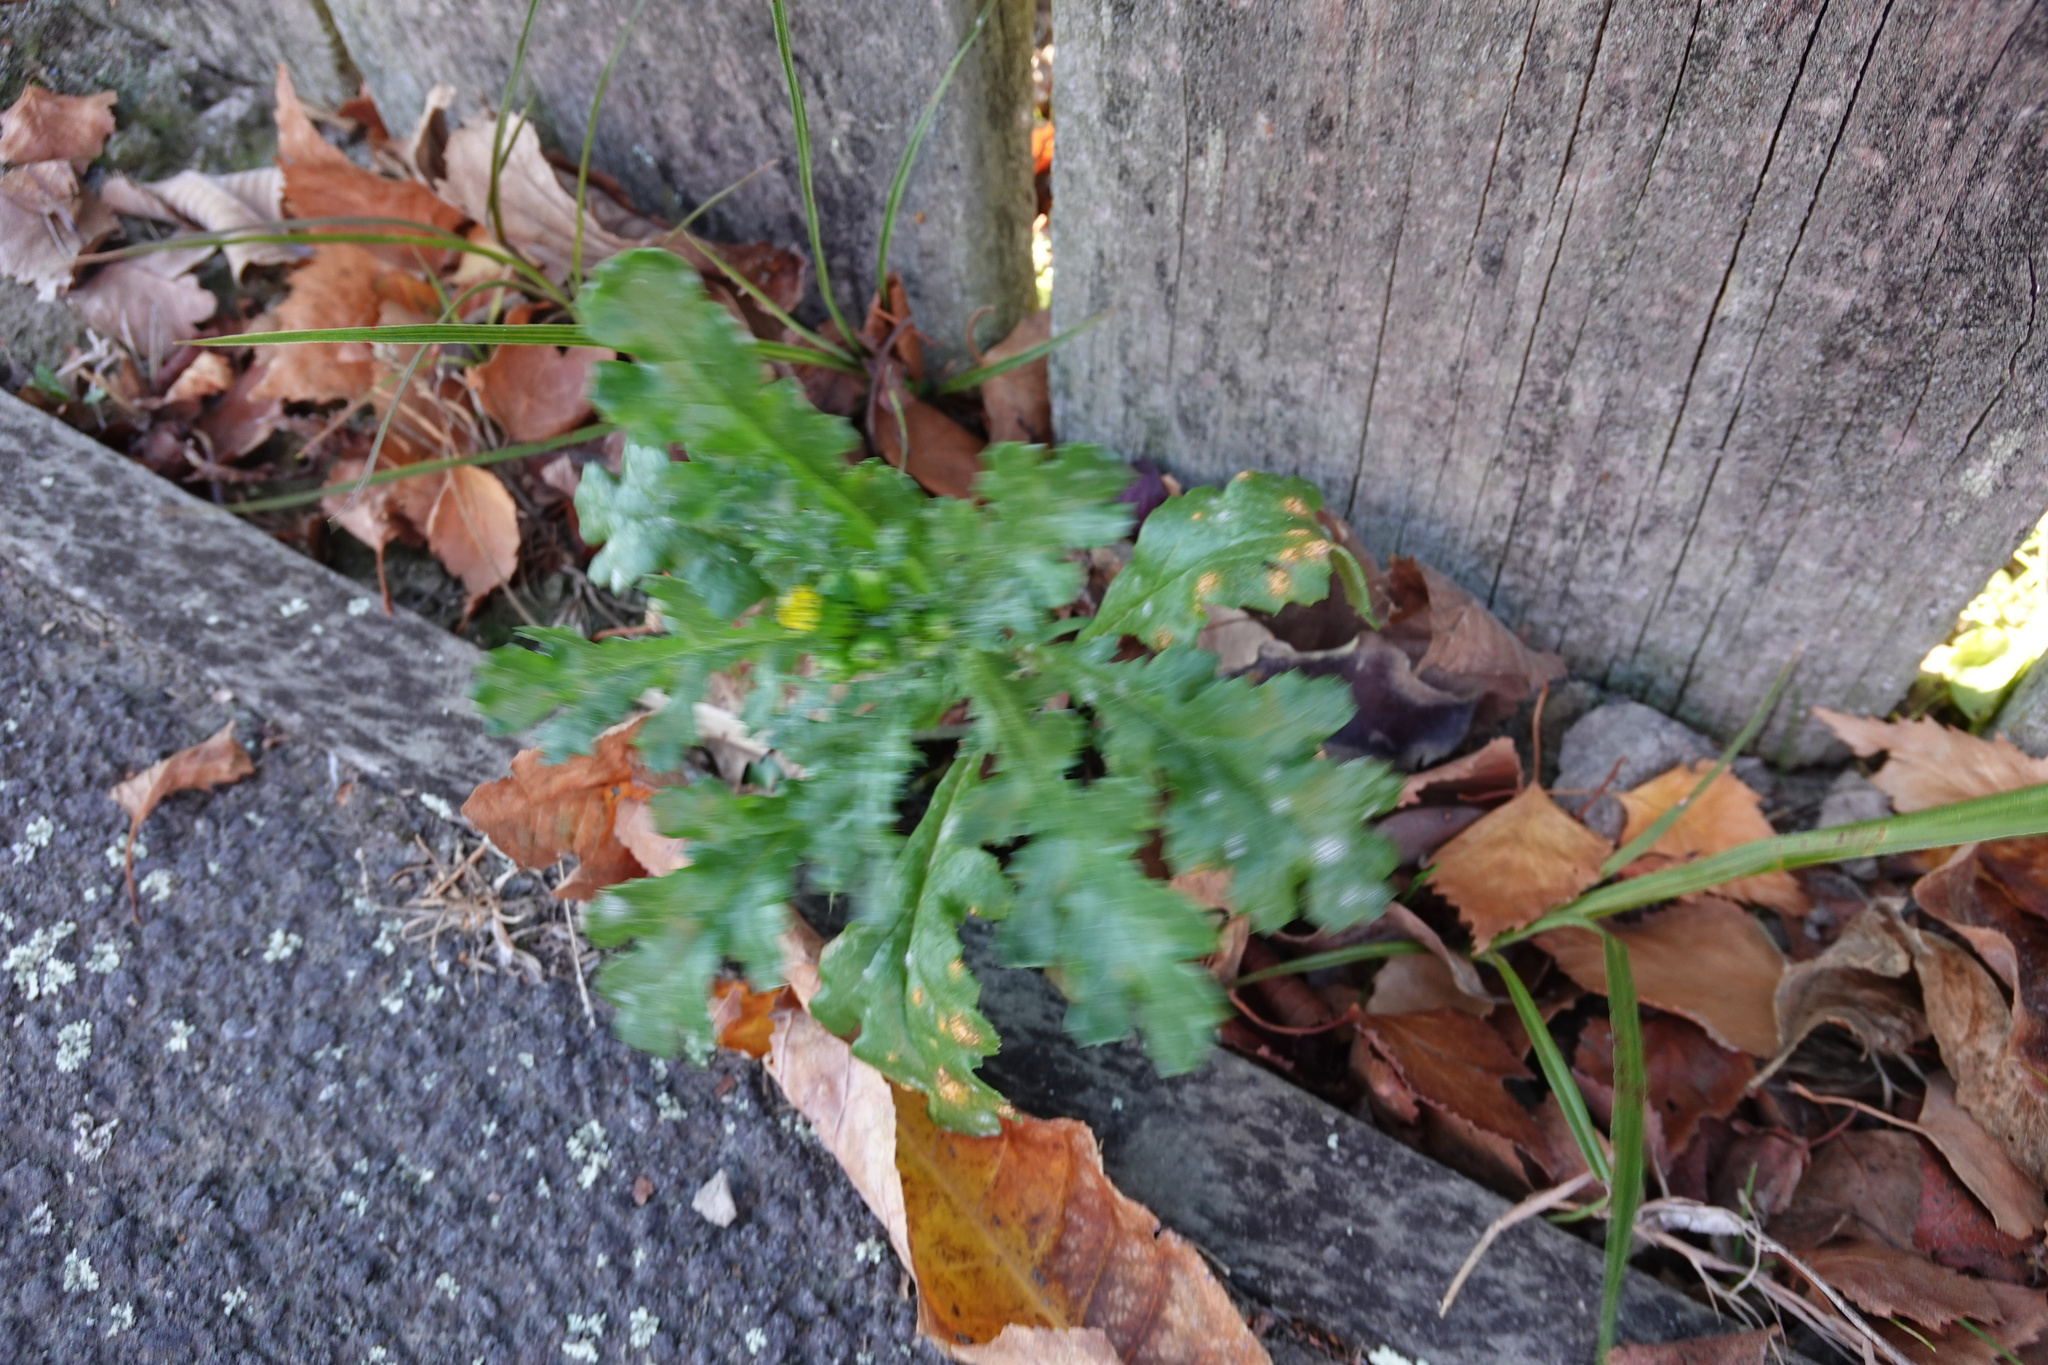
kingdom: Plantae
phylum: Tracheophyta
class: Magnoliopsida
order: Asterales
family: Asteraceae
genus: Senecio
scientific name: Senecio vulgaris
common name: Old-man-in-the-spring
